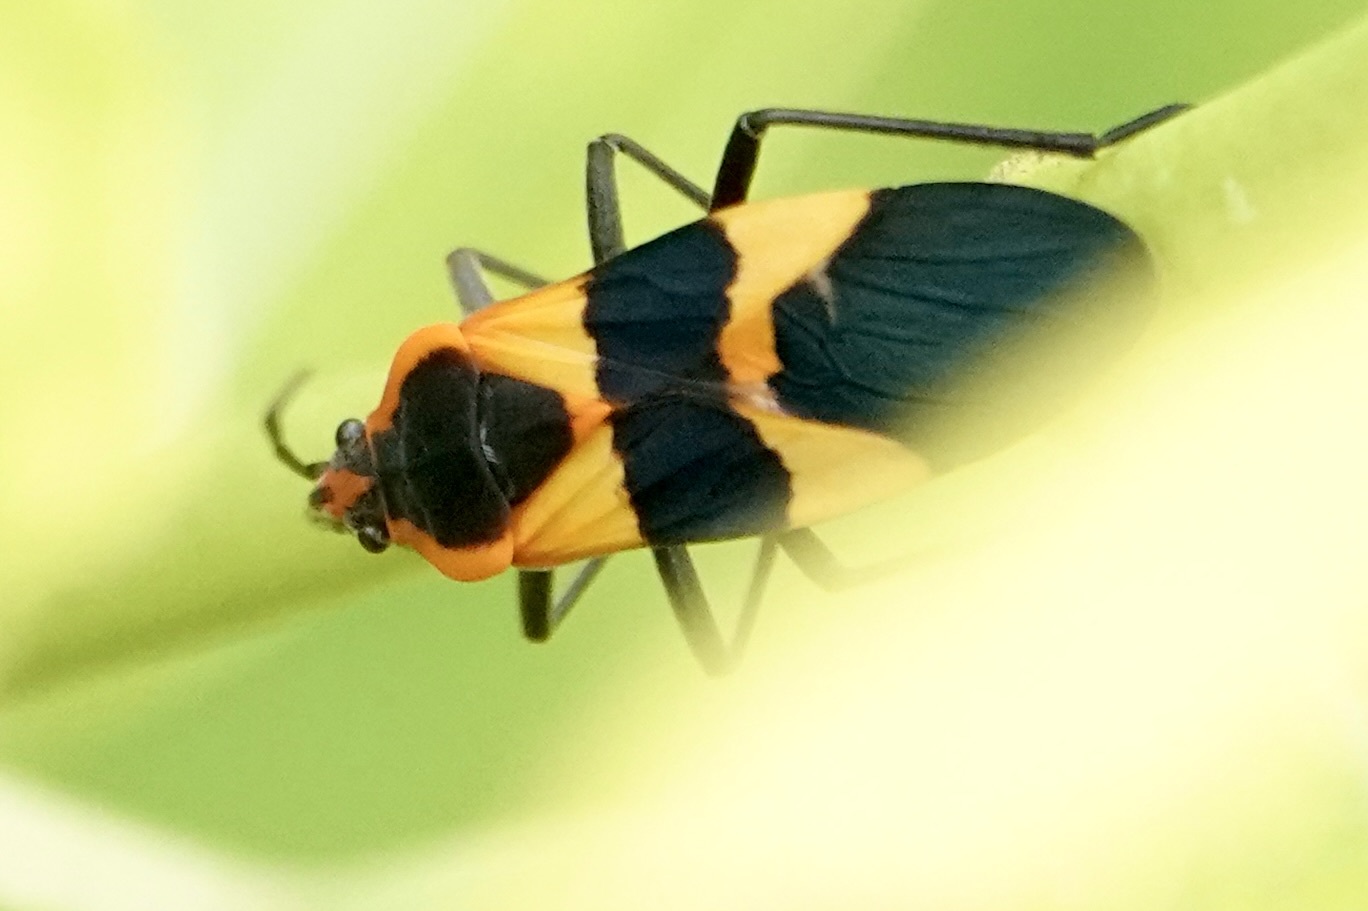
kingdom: Animalia
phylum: Arthropoda
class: Insecta
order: Hemiptera
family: Lygaeidae
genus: Oncopeltus
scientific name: Oncopeltus fasciatus
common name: Large milkweed bug
